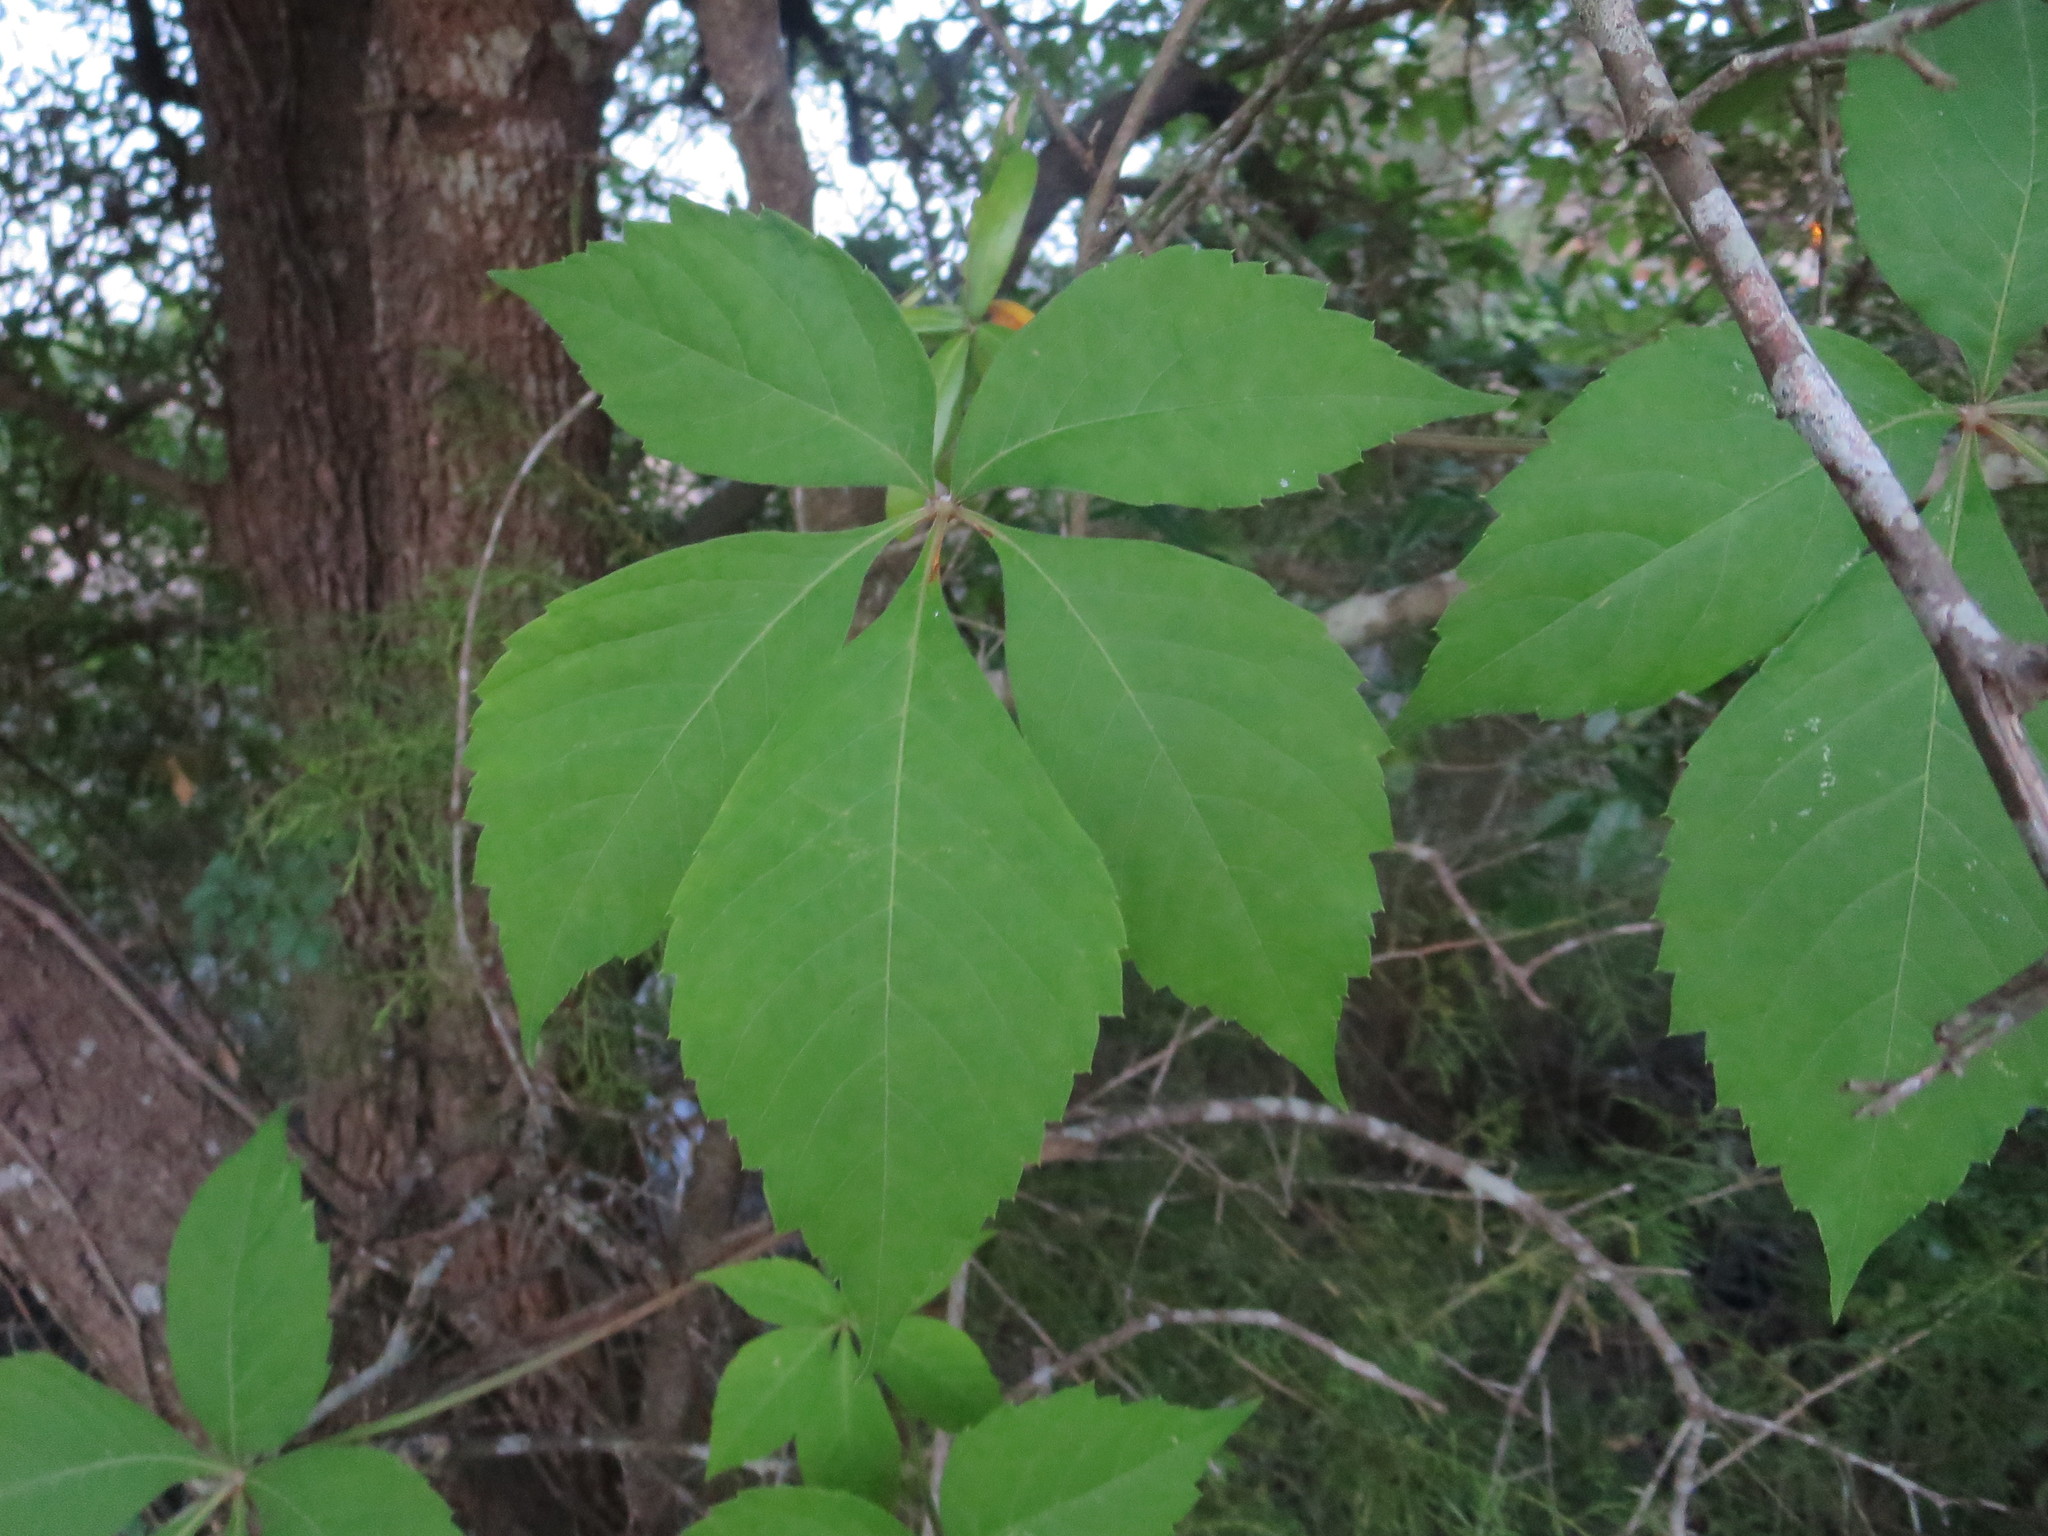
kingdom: Plantae
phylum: Tracheophyta
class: Magnoliopsida
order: Vitales
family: Vitaceae
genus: Parthenocissus
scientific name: Parthenocissus quinquefolia
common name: Virginia-creeper
